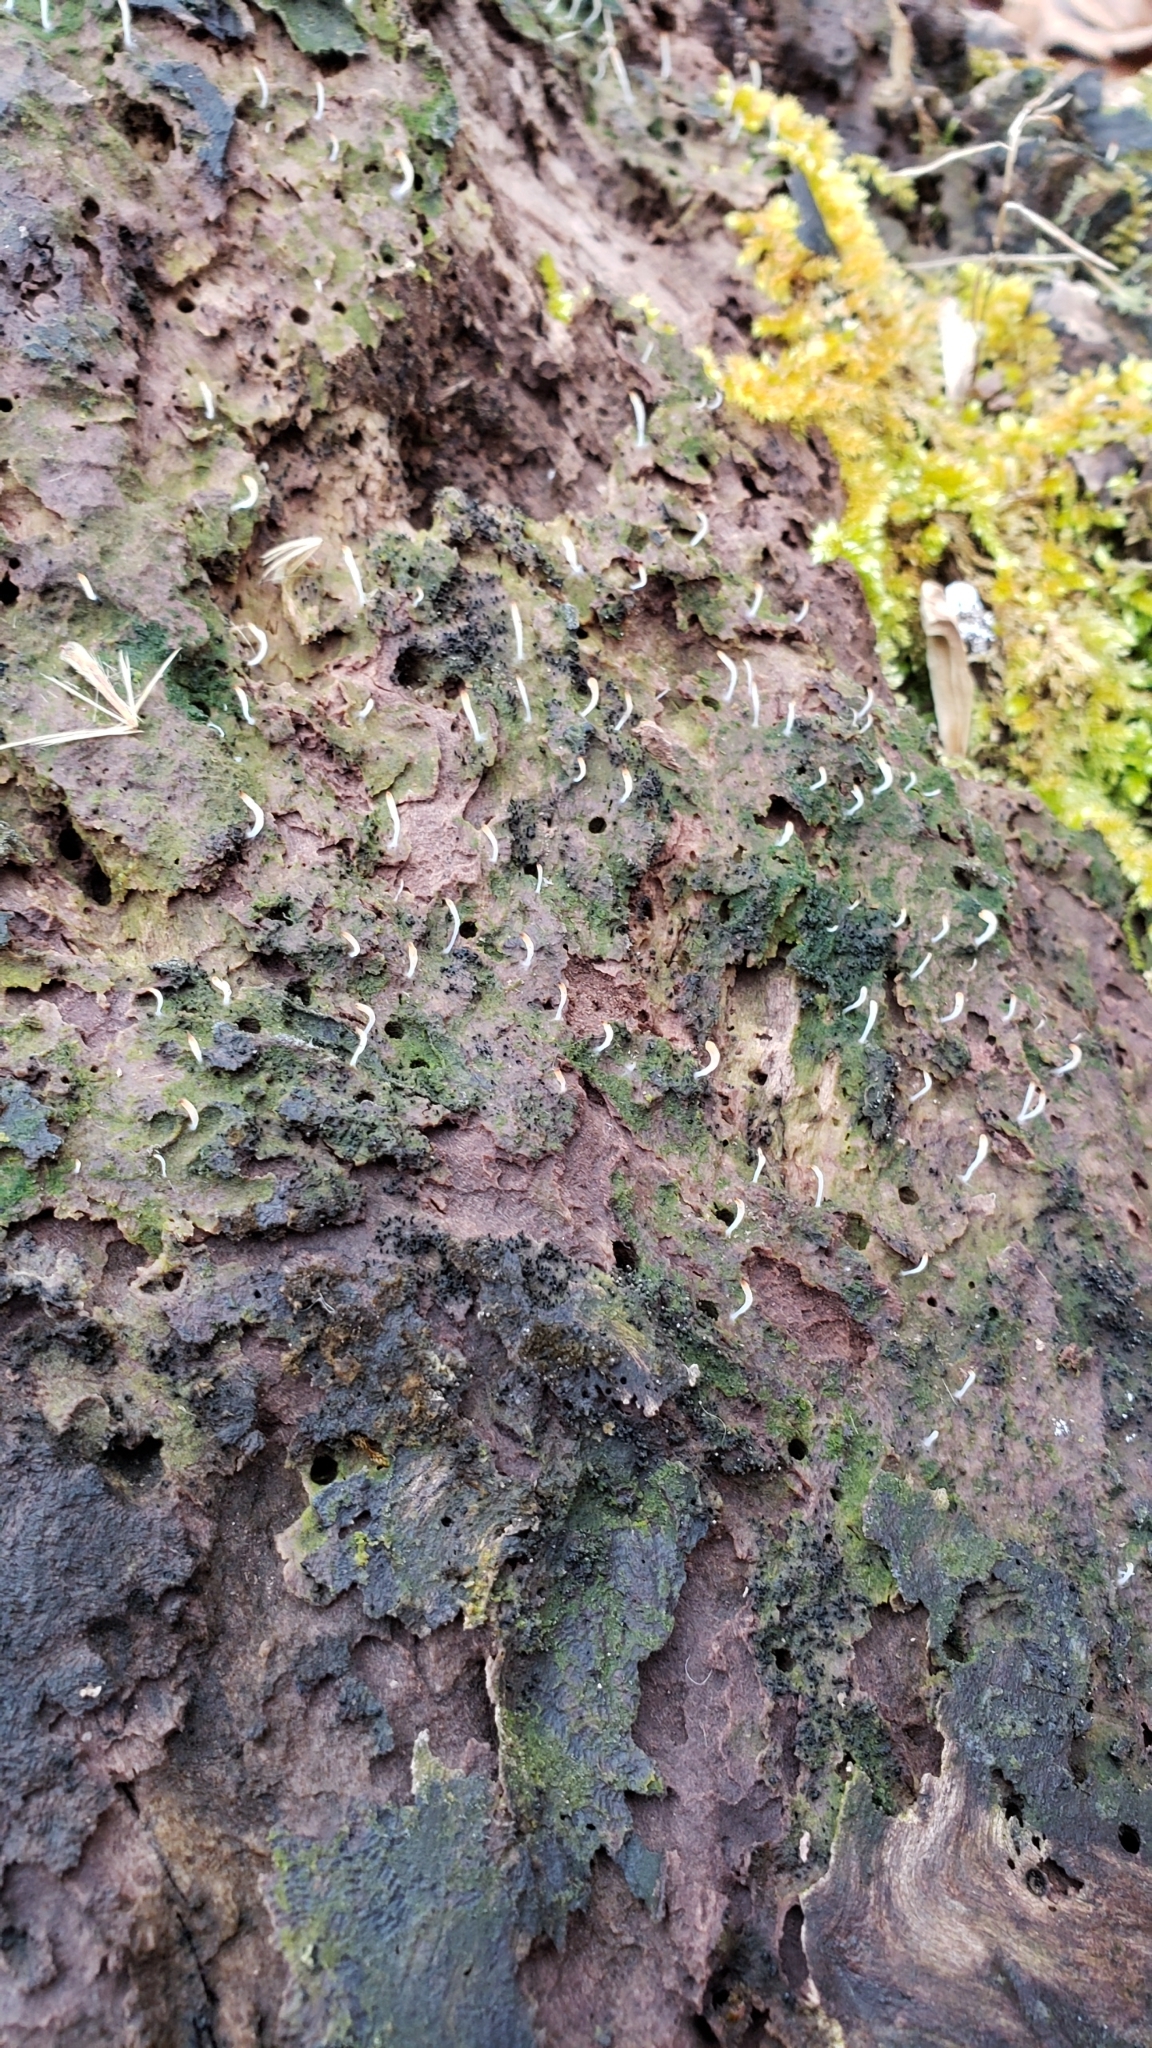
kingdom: Fungi
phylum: Basidiomycota
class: Agaricomycetes
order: Cantharellales
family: Hydnaceae
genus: Multiclavula
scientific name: Multiclavula mucida
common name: White green-algae coral
